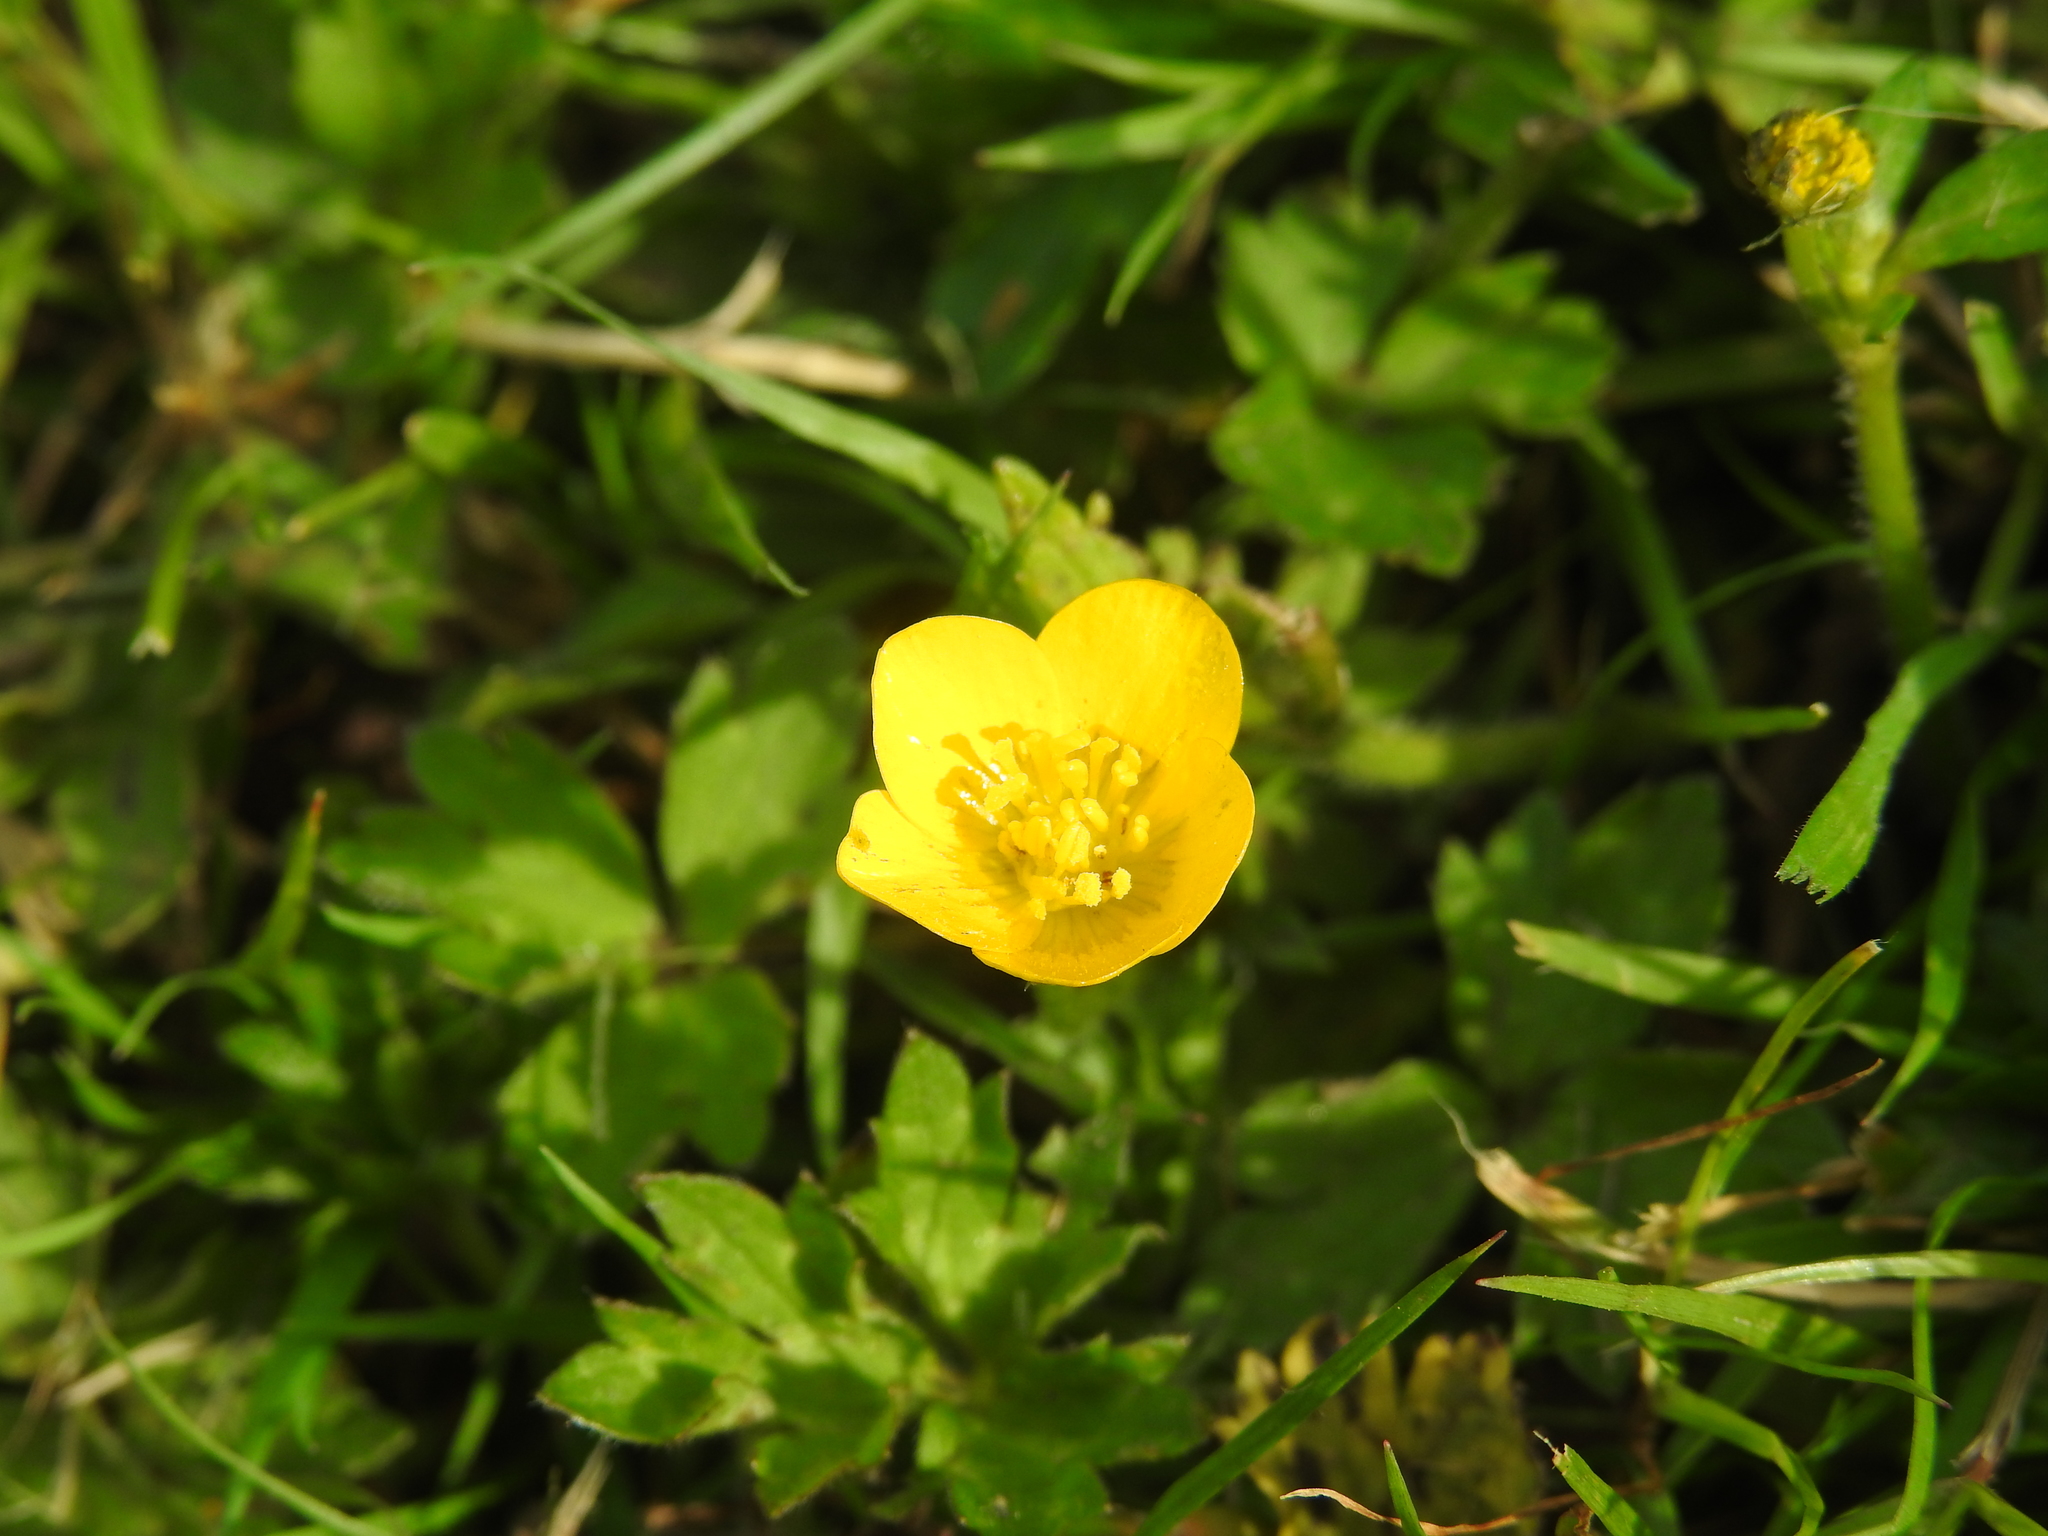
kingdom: Plantae
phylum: Tracheophyta
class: Magnoliopsida
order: Ranunculales
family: Ranunculaceae
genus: Ranunculus
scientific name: Ranunculus repens
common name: Creeping buttercup
